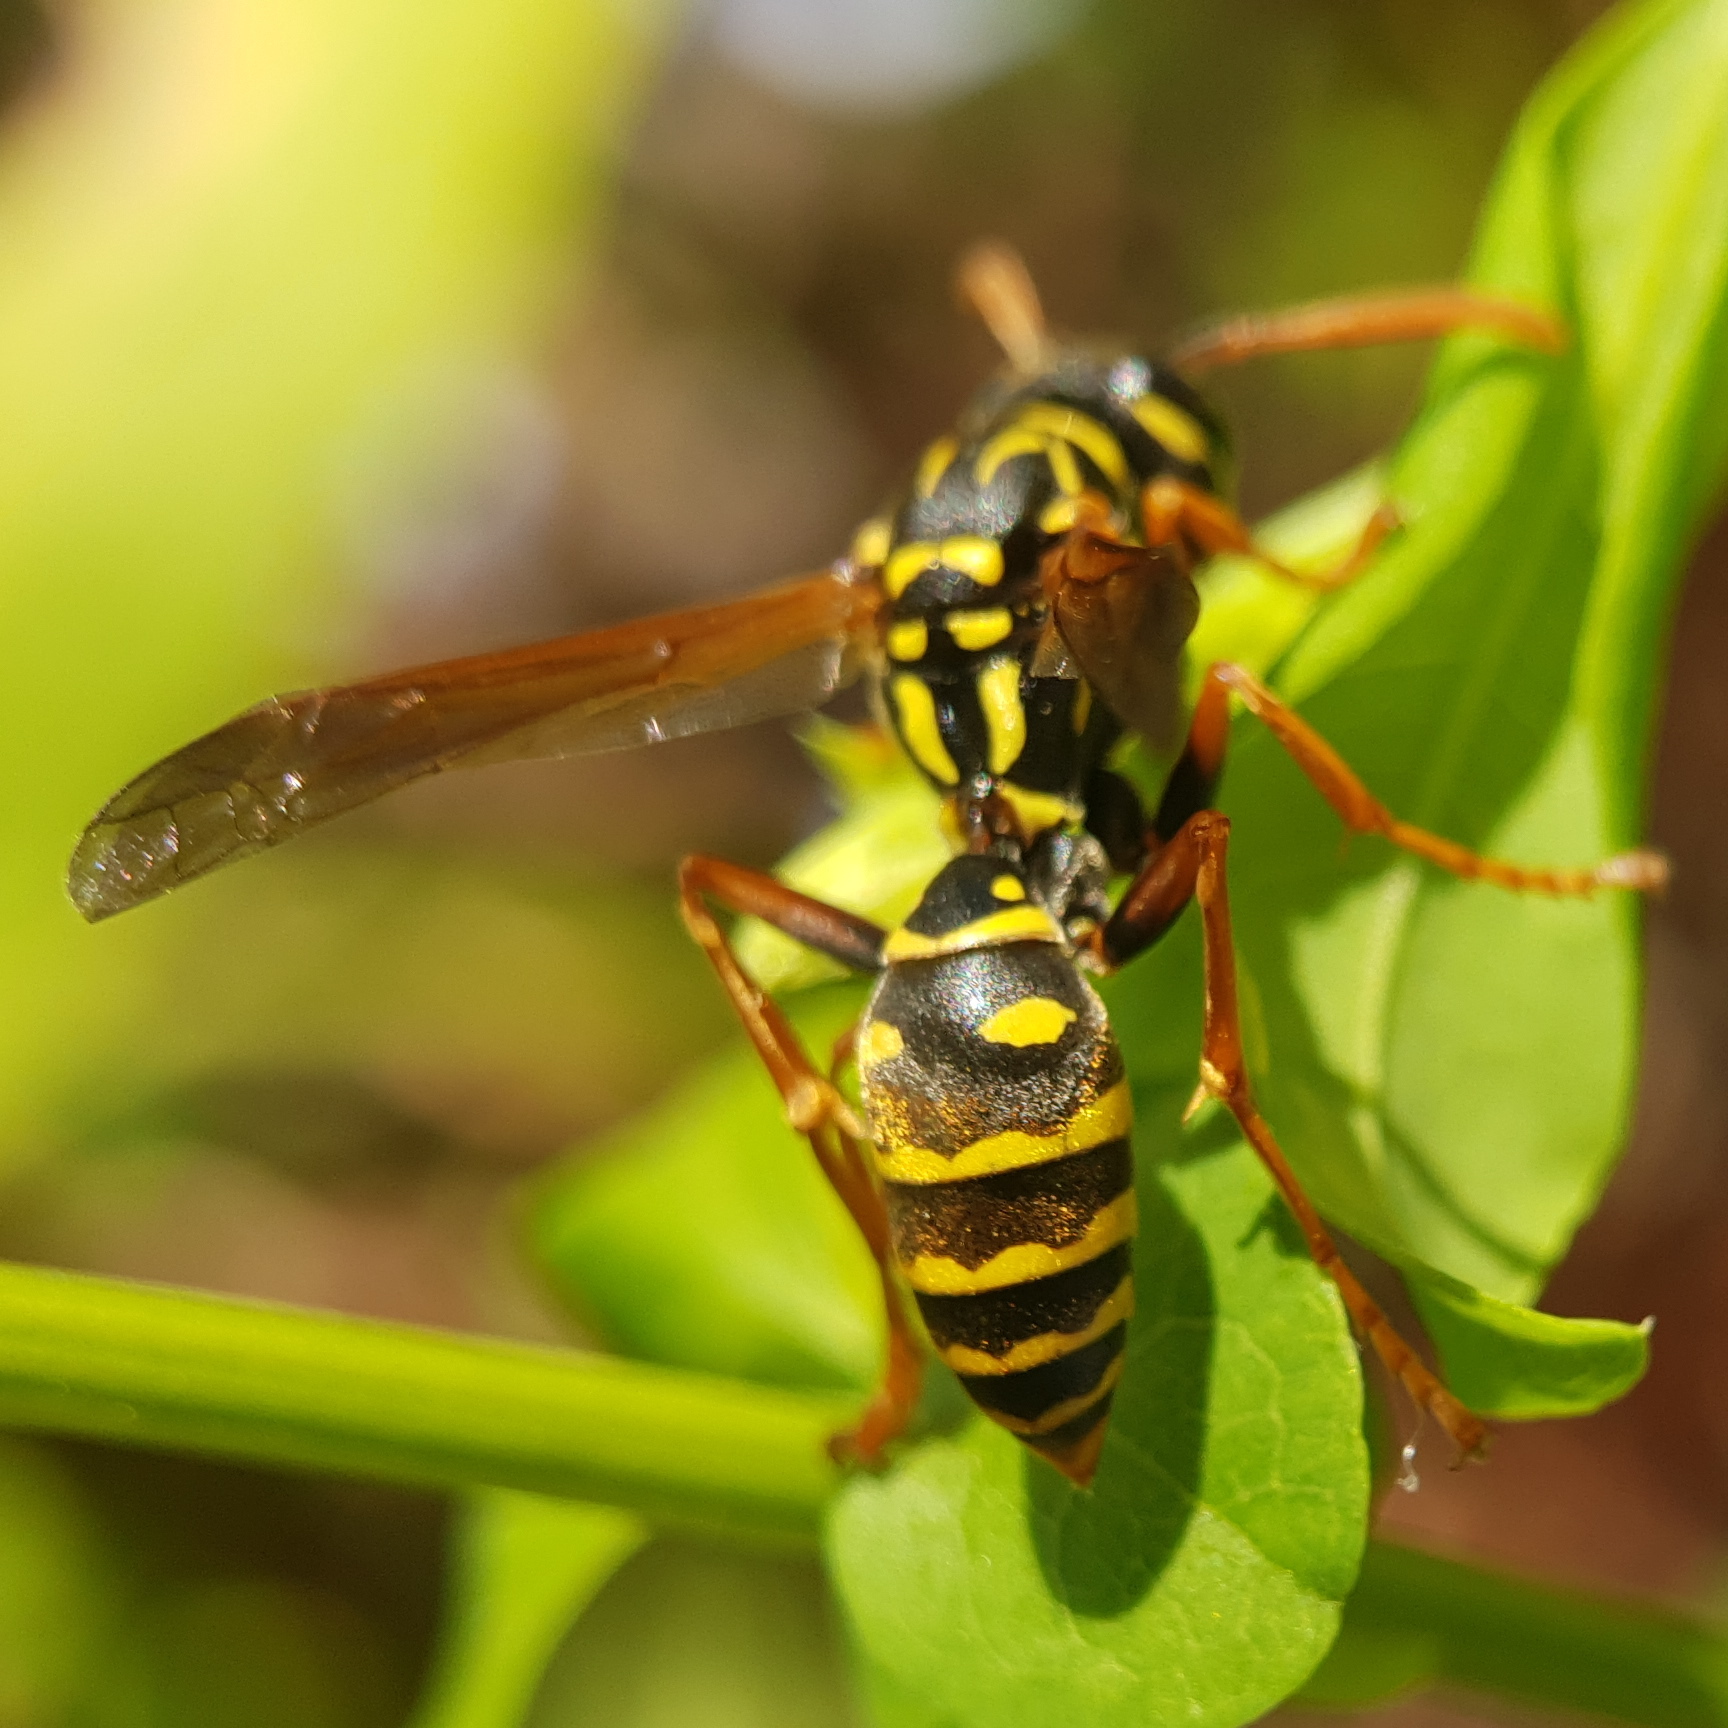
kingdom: Animalia
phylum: Arthropoda
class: Insecta
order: Hymenoptera
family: Eumenidae
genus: Polistes
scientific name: Polistes dominula
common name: Paper wasp
